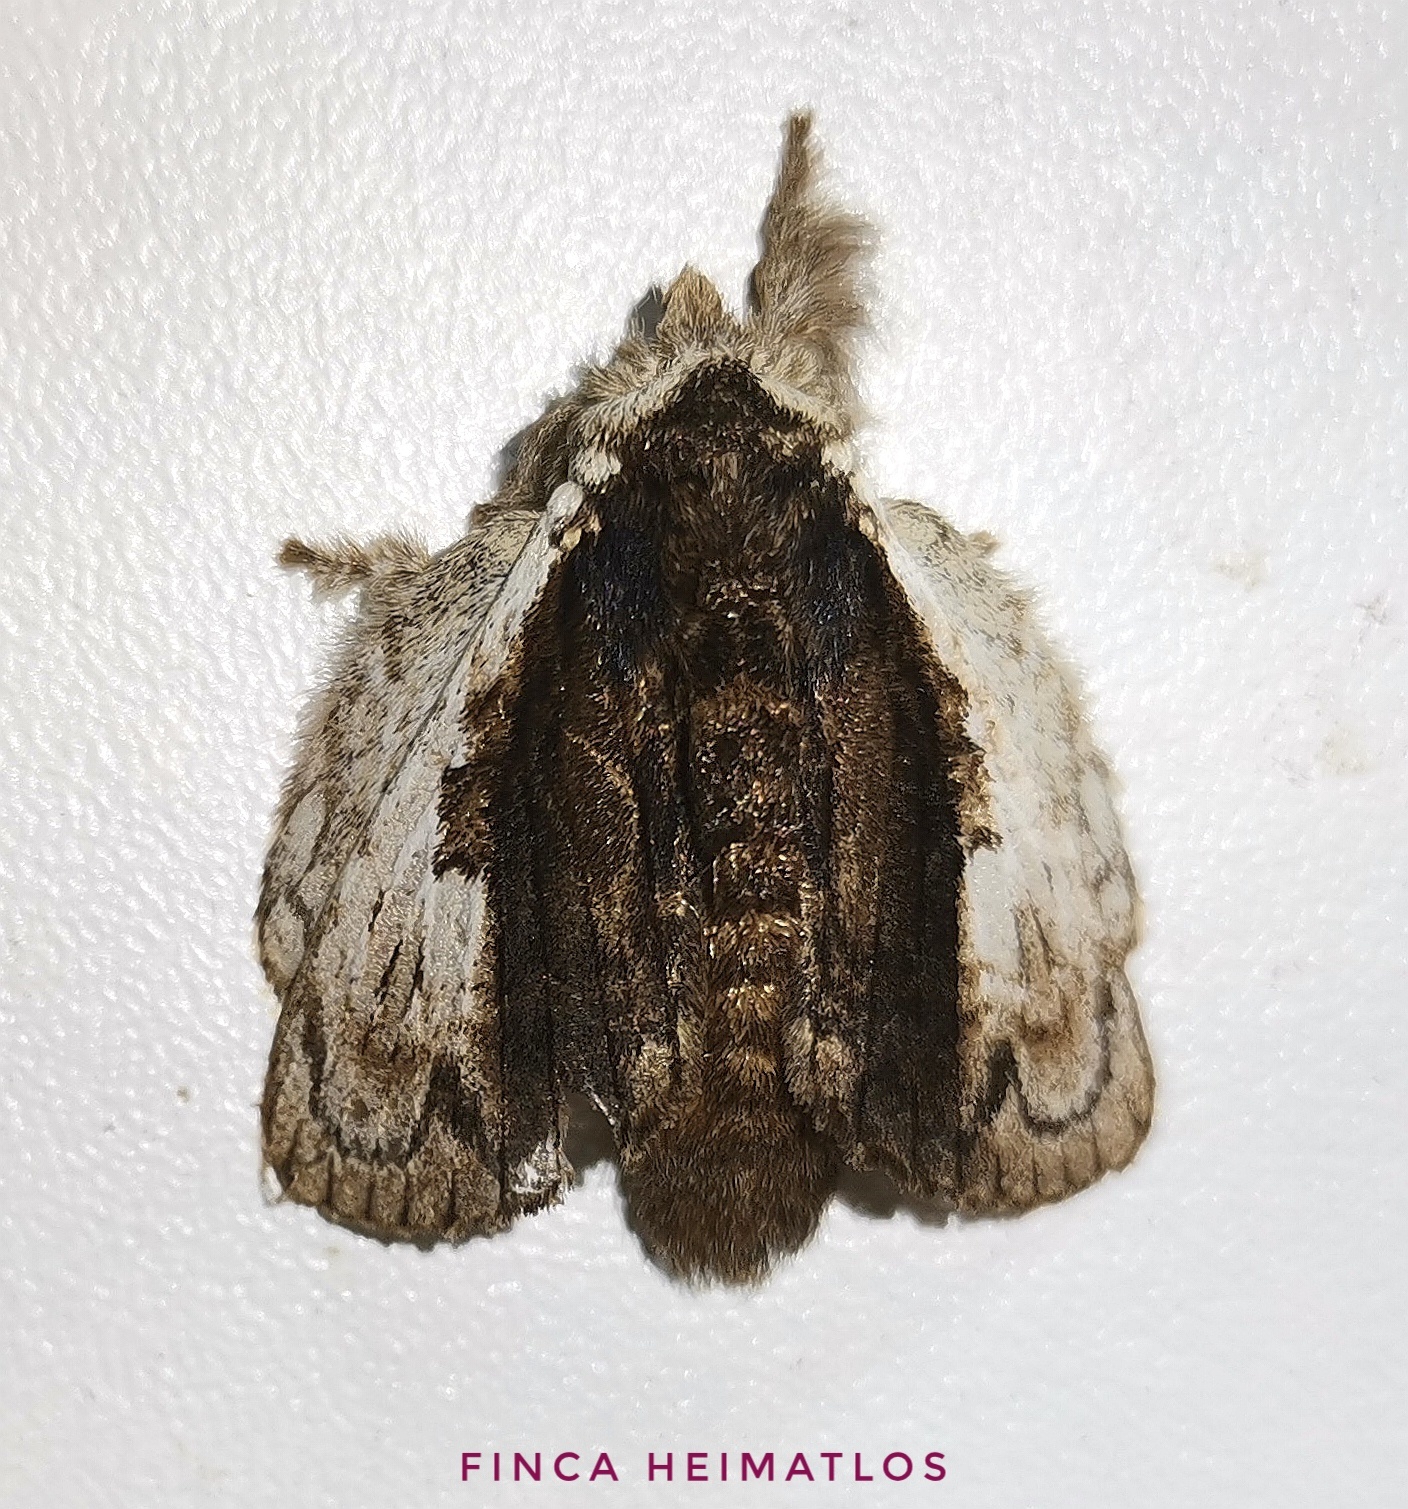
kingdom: Animalia
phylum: Arthropoda
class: Insecta
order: Lepidoptera
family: Lasiocampidae
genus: Euglyphis
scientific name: Euglyphis semita
